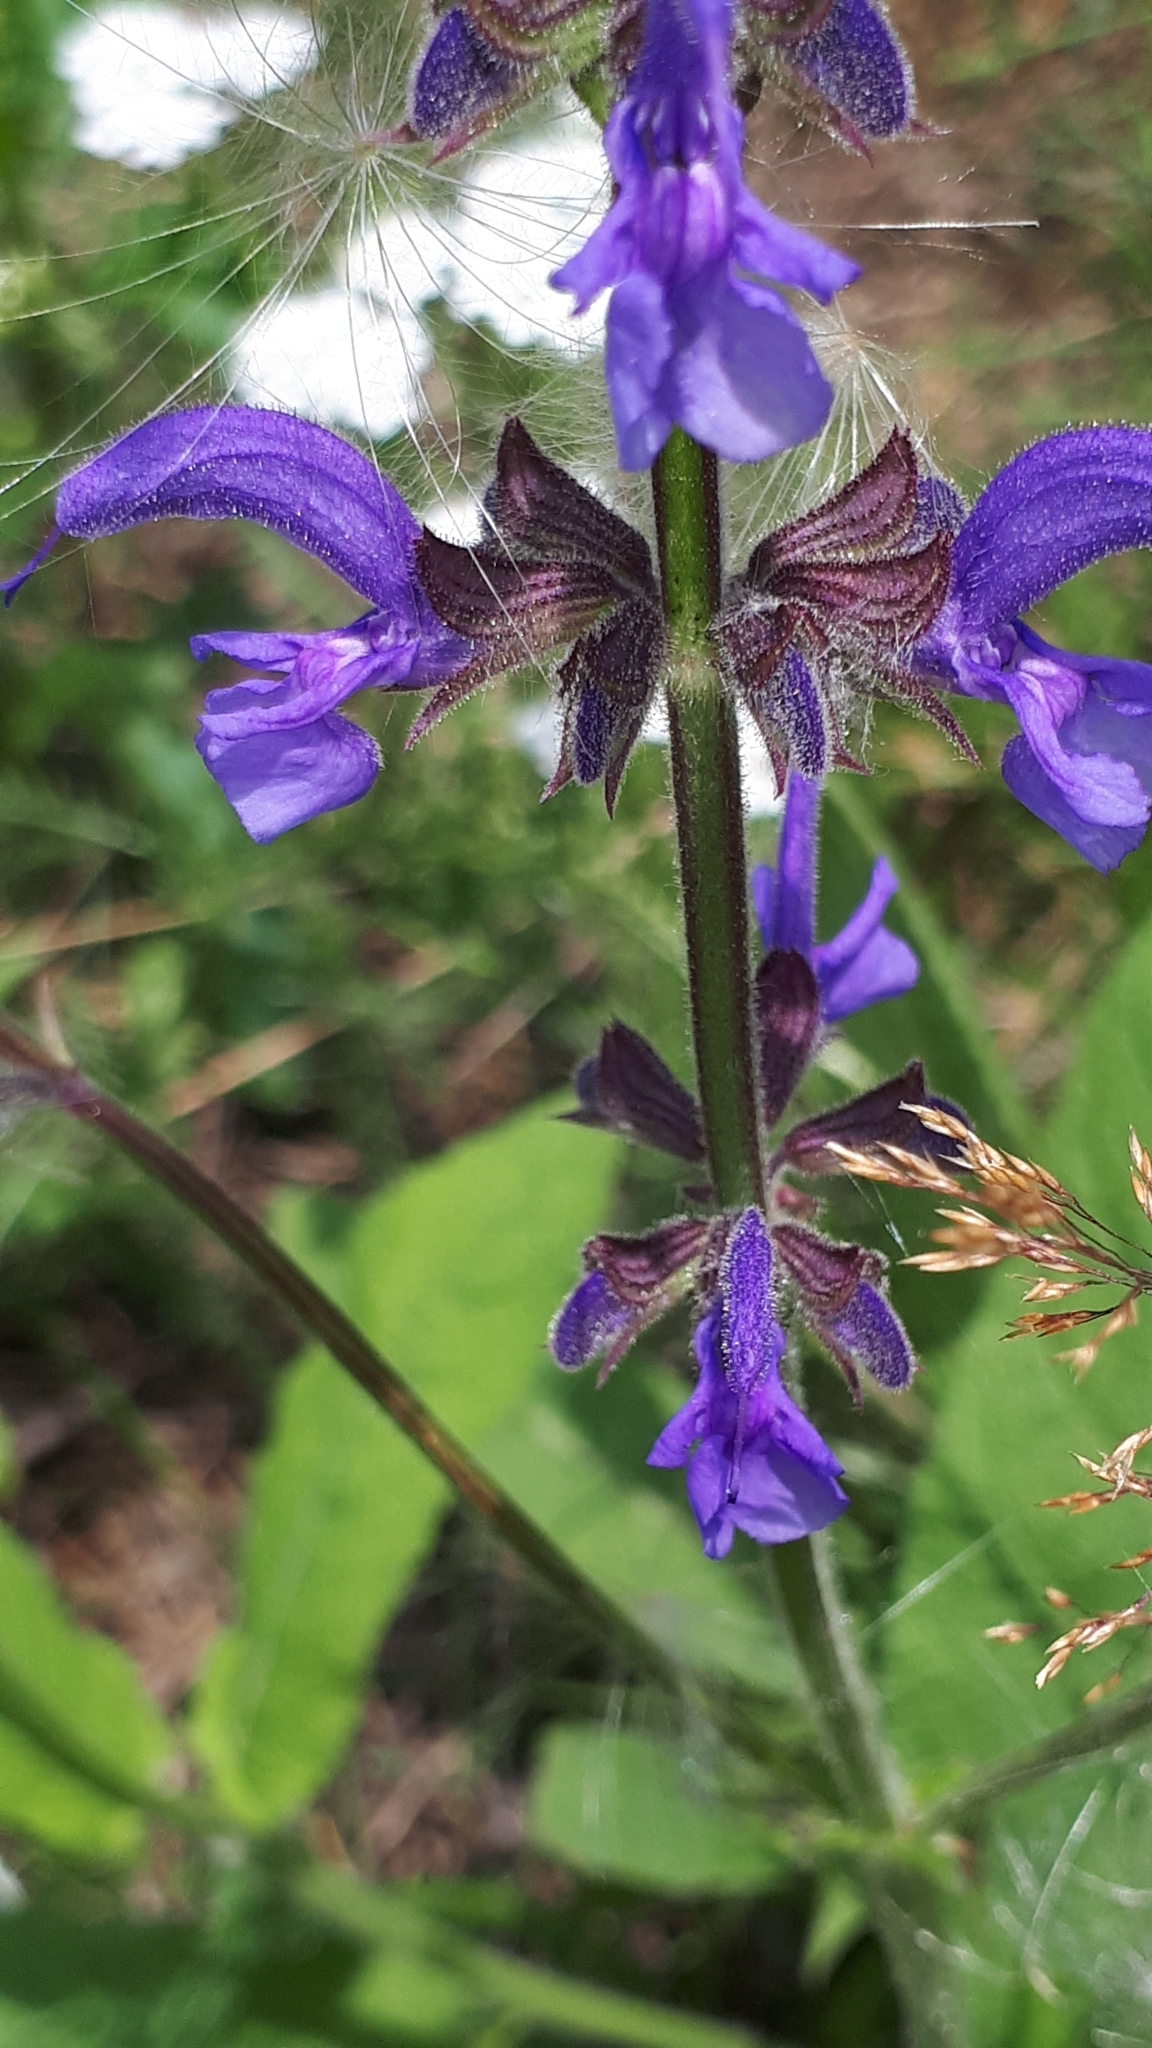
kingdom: Plantae
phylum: Tracheophyta
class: Magnoliopsida
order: Lamiales
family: Lamiaceae
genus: Salvia
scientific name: Salvia pratensis
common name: Meadow sage
